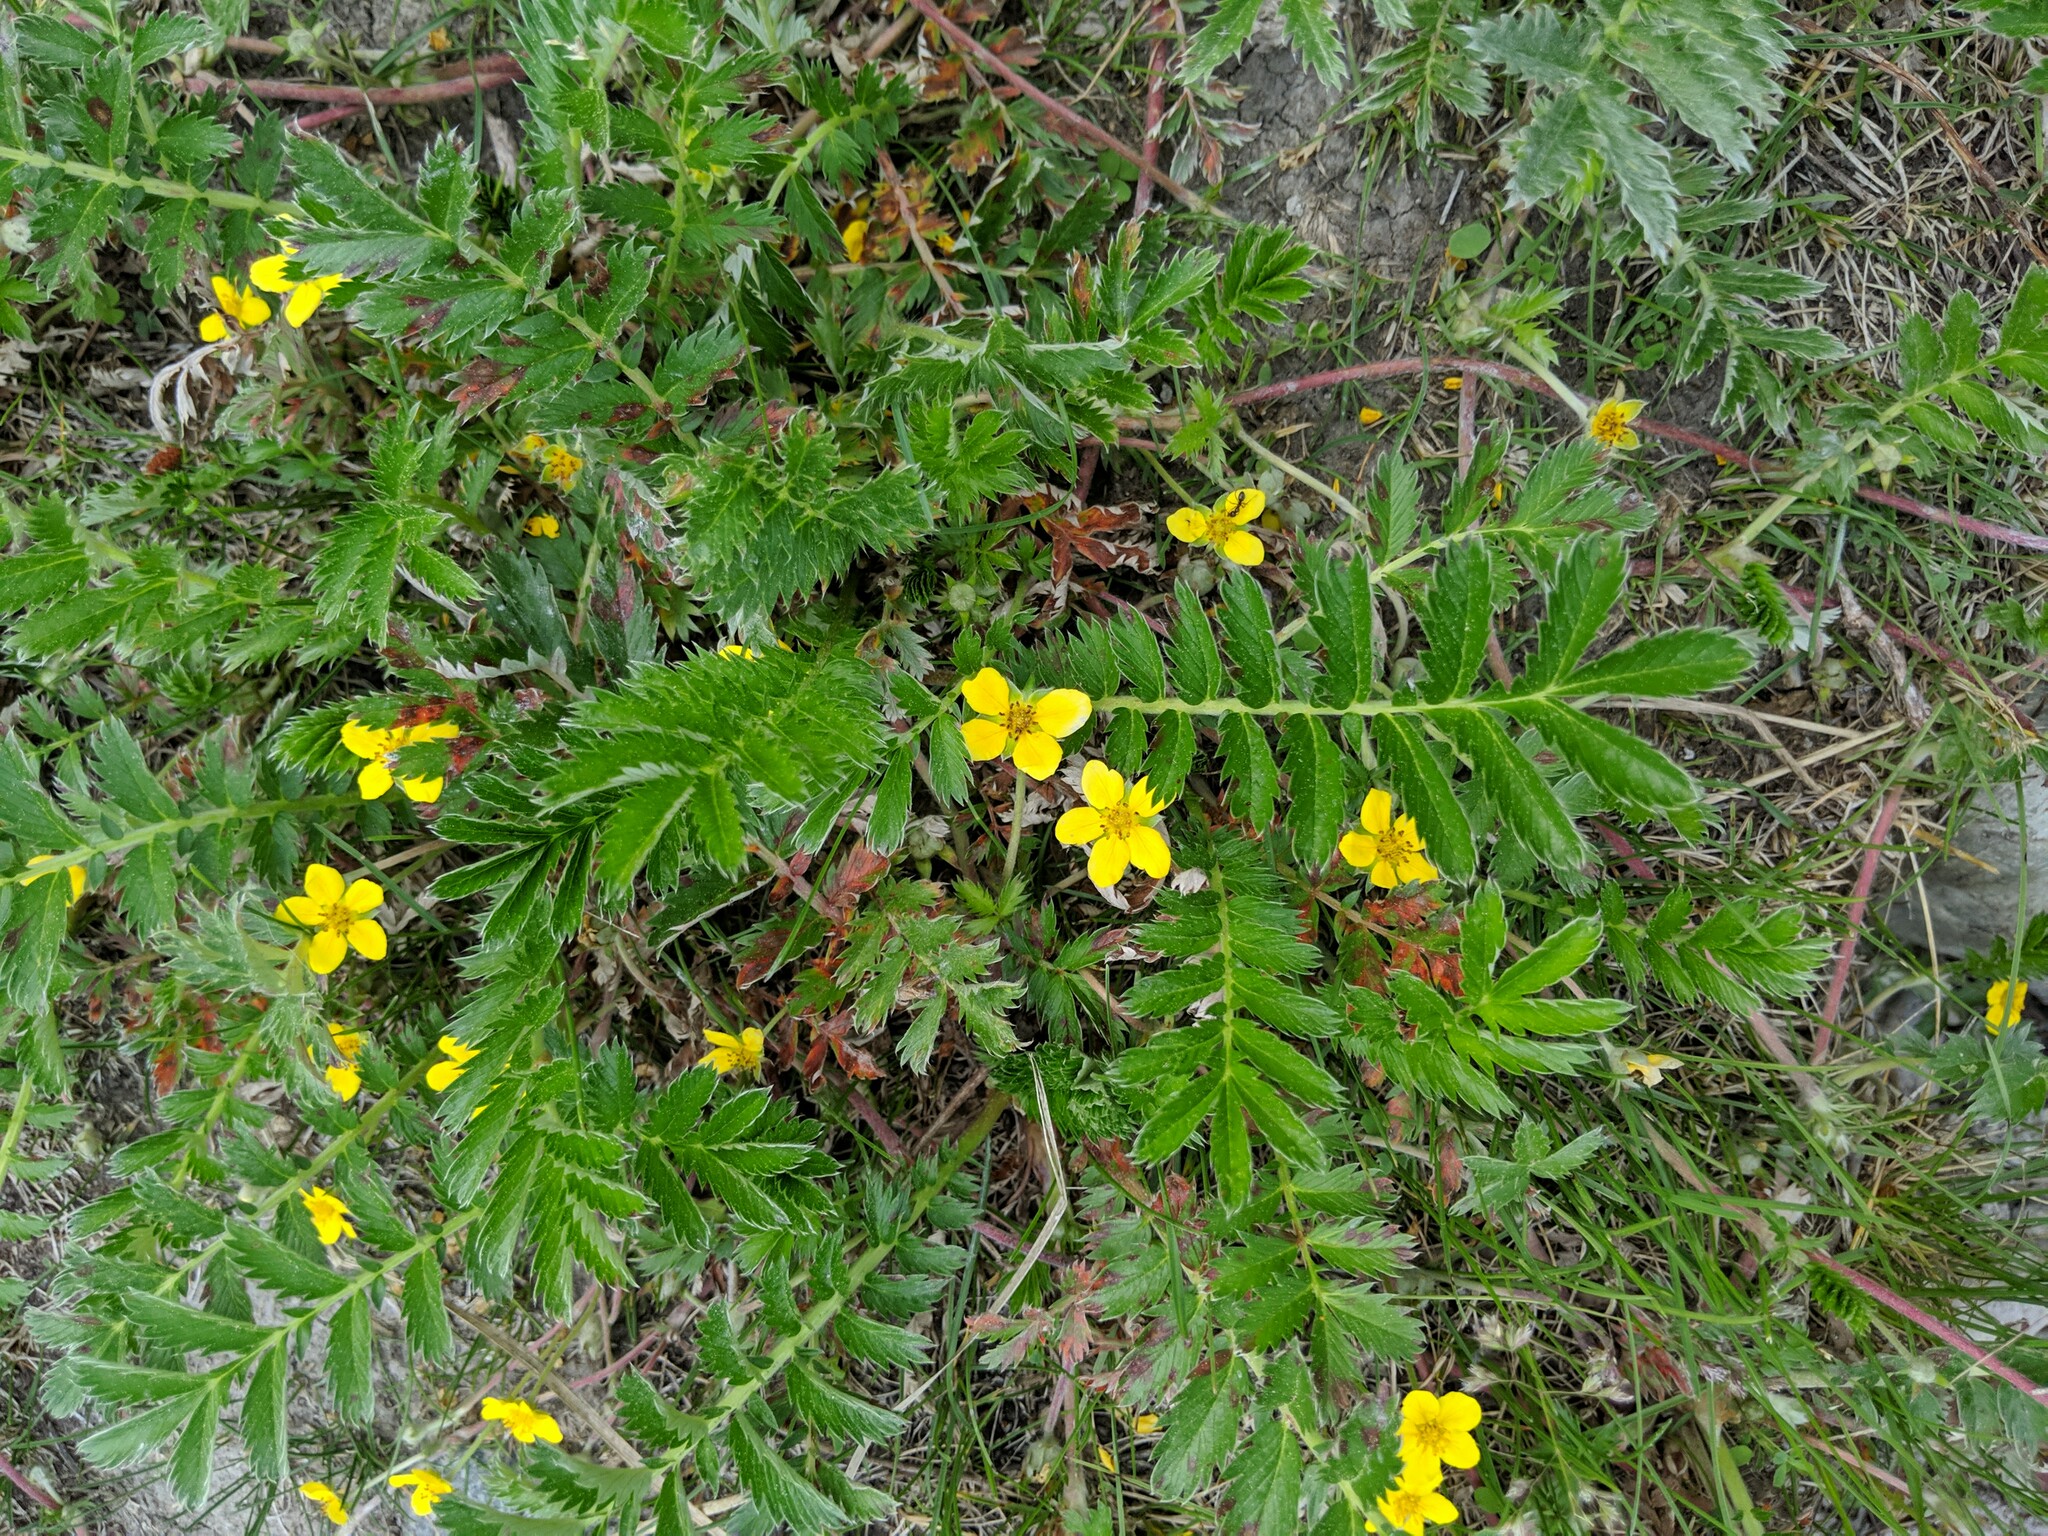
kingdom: Plantae
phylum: Tracheophyta
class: Magnoliopsida
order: Rosales
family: Rosaceae
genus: Argentina
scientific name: Argentina anserina
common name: Common silverweed
